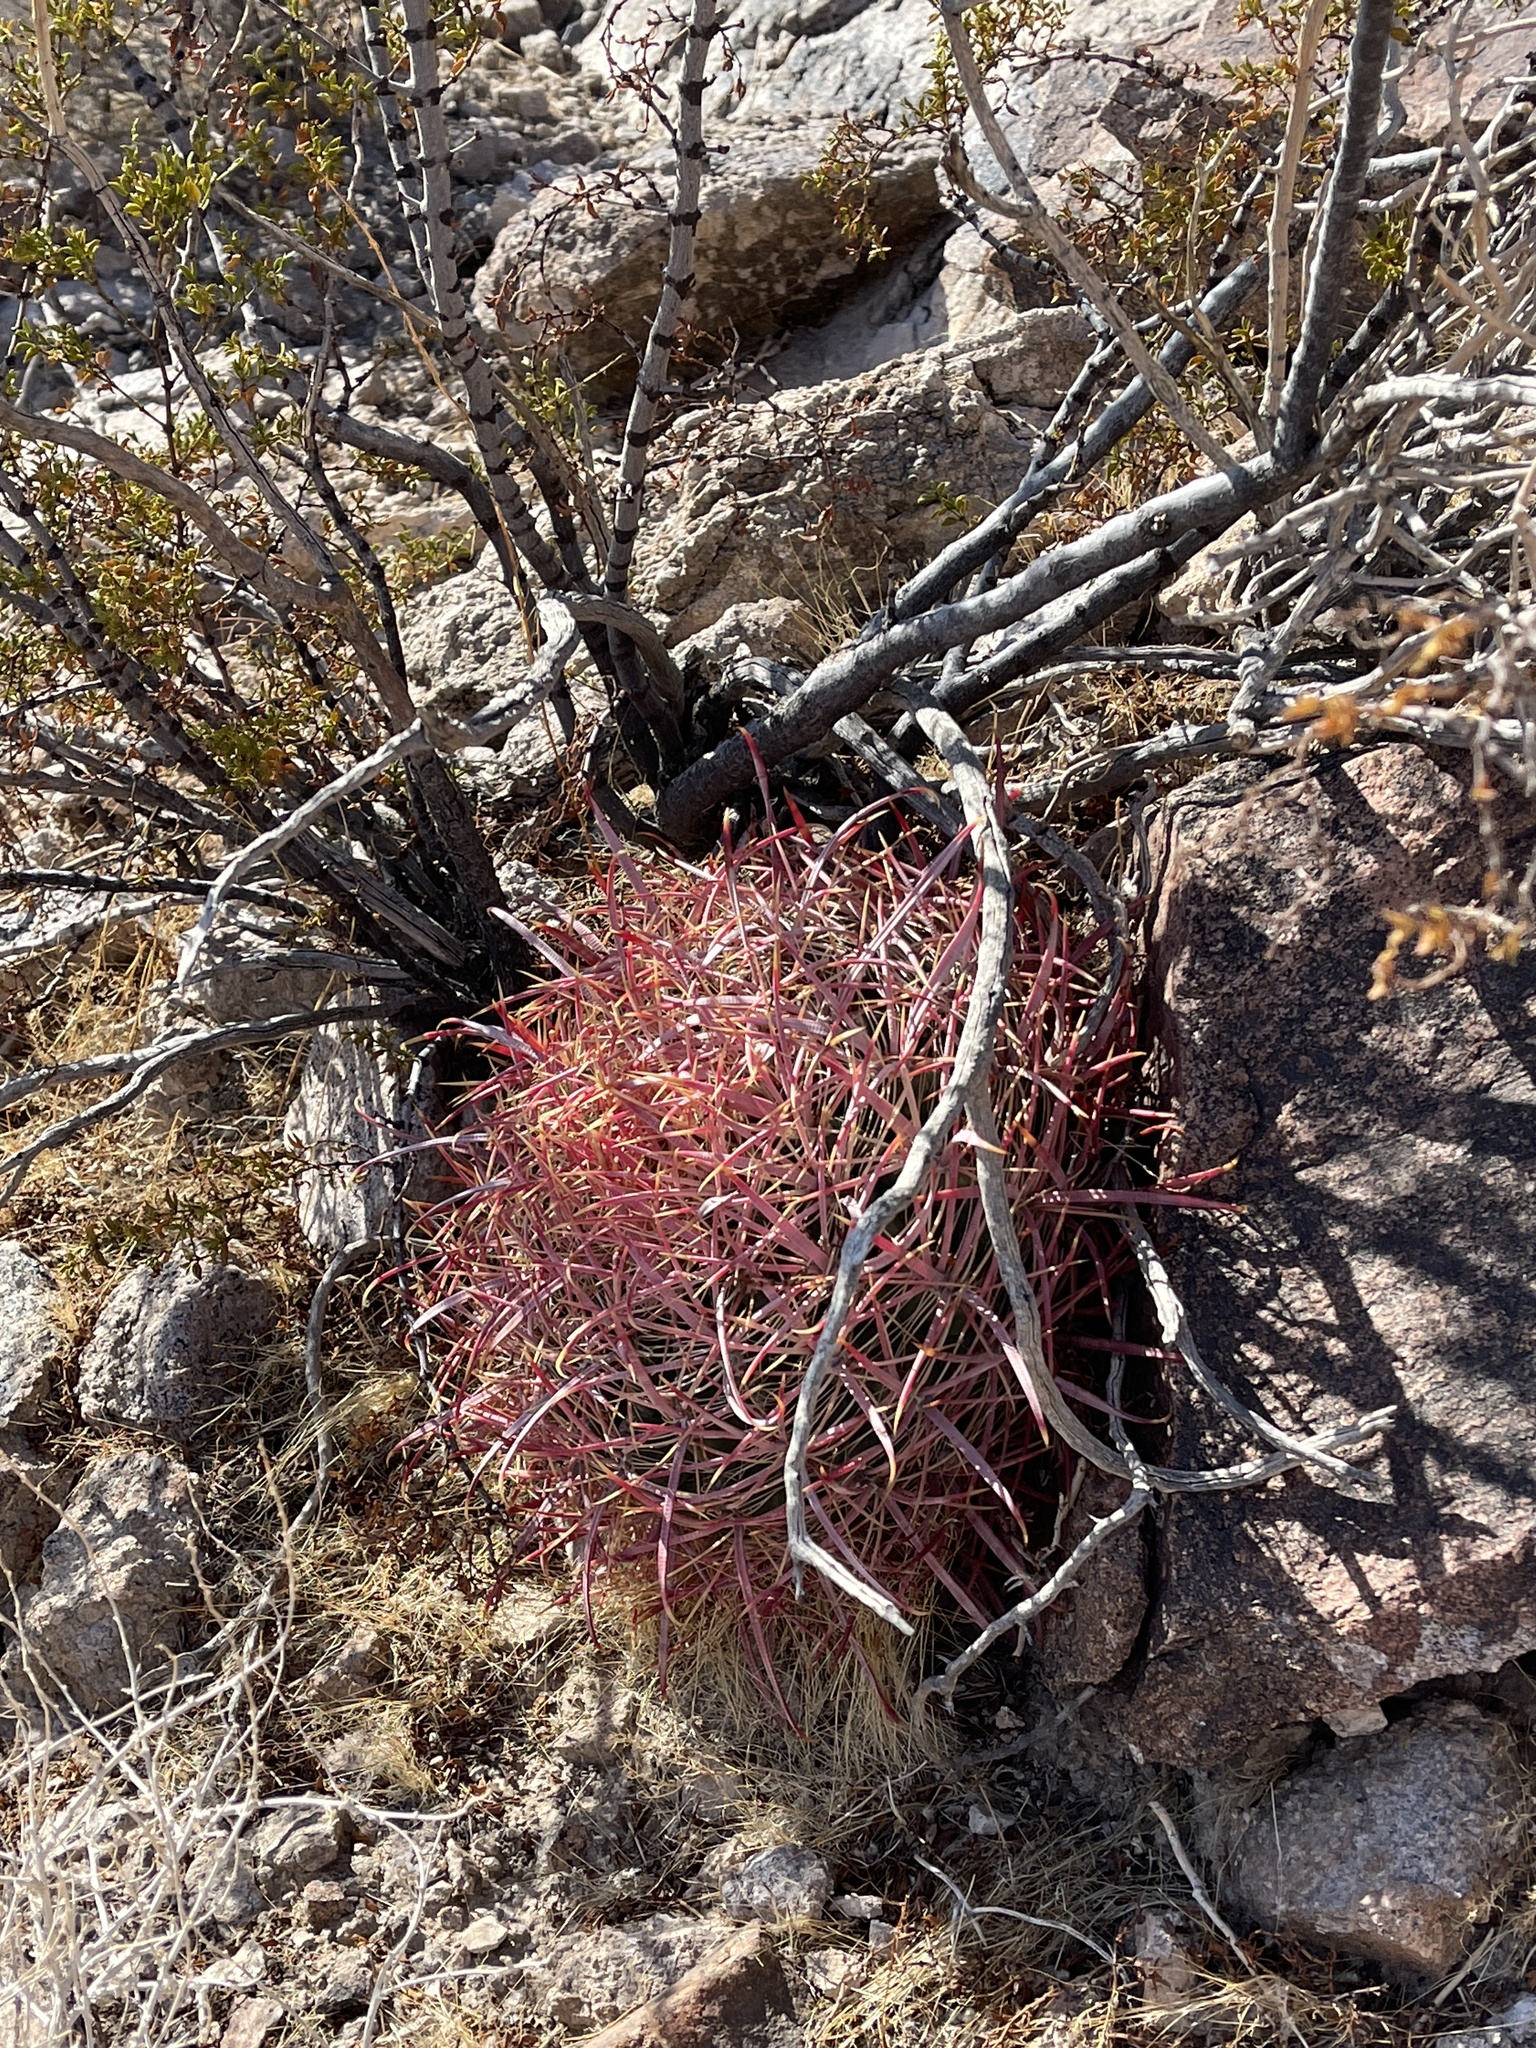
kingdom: Plantae
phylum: Tracheophyta
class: Magnoliopsida
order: Caryophyllales
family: Cactaceae
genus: Ferocactus
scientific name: Ferocactus cylindraceus
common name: California barrel cactus
